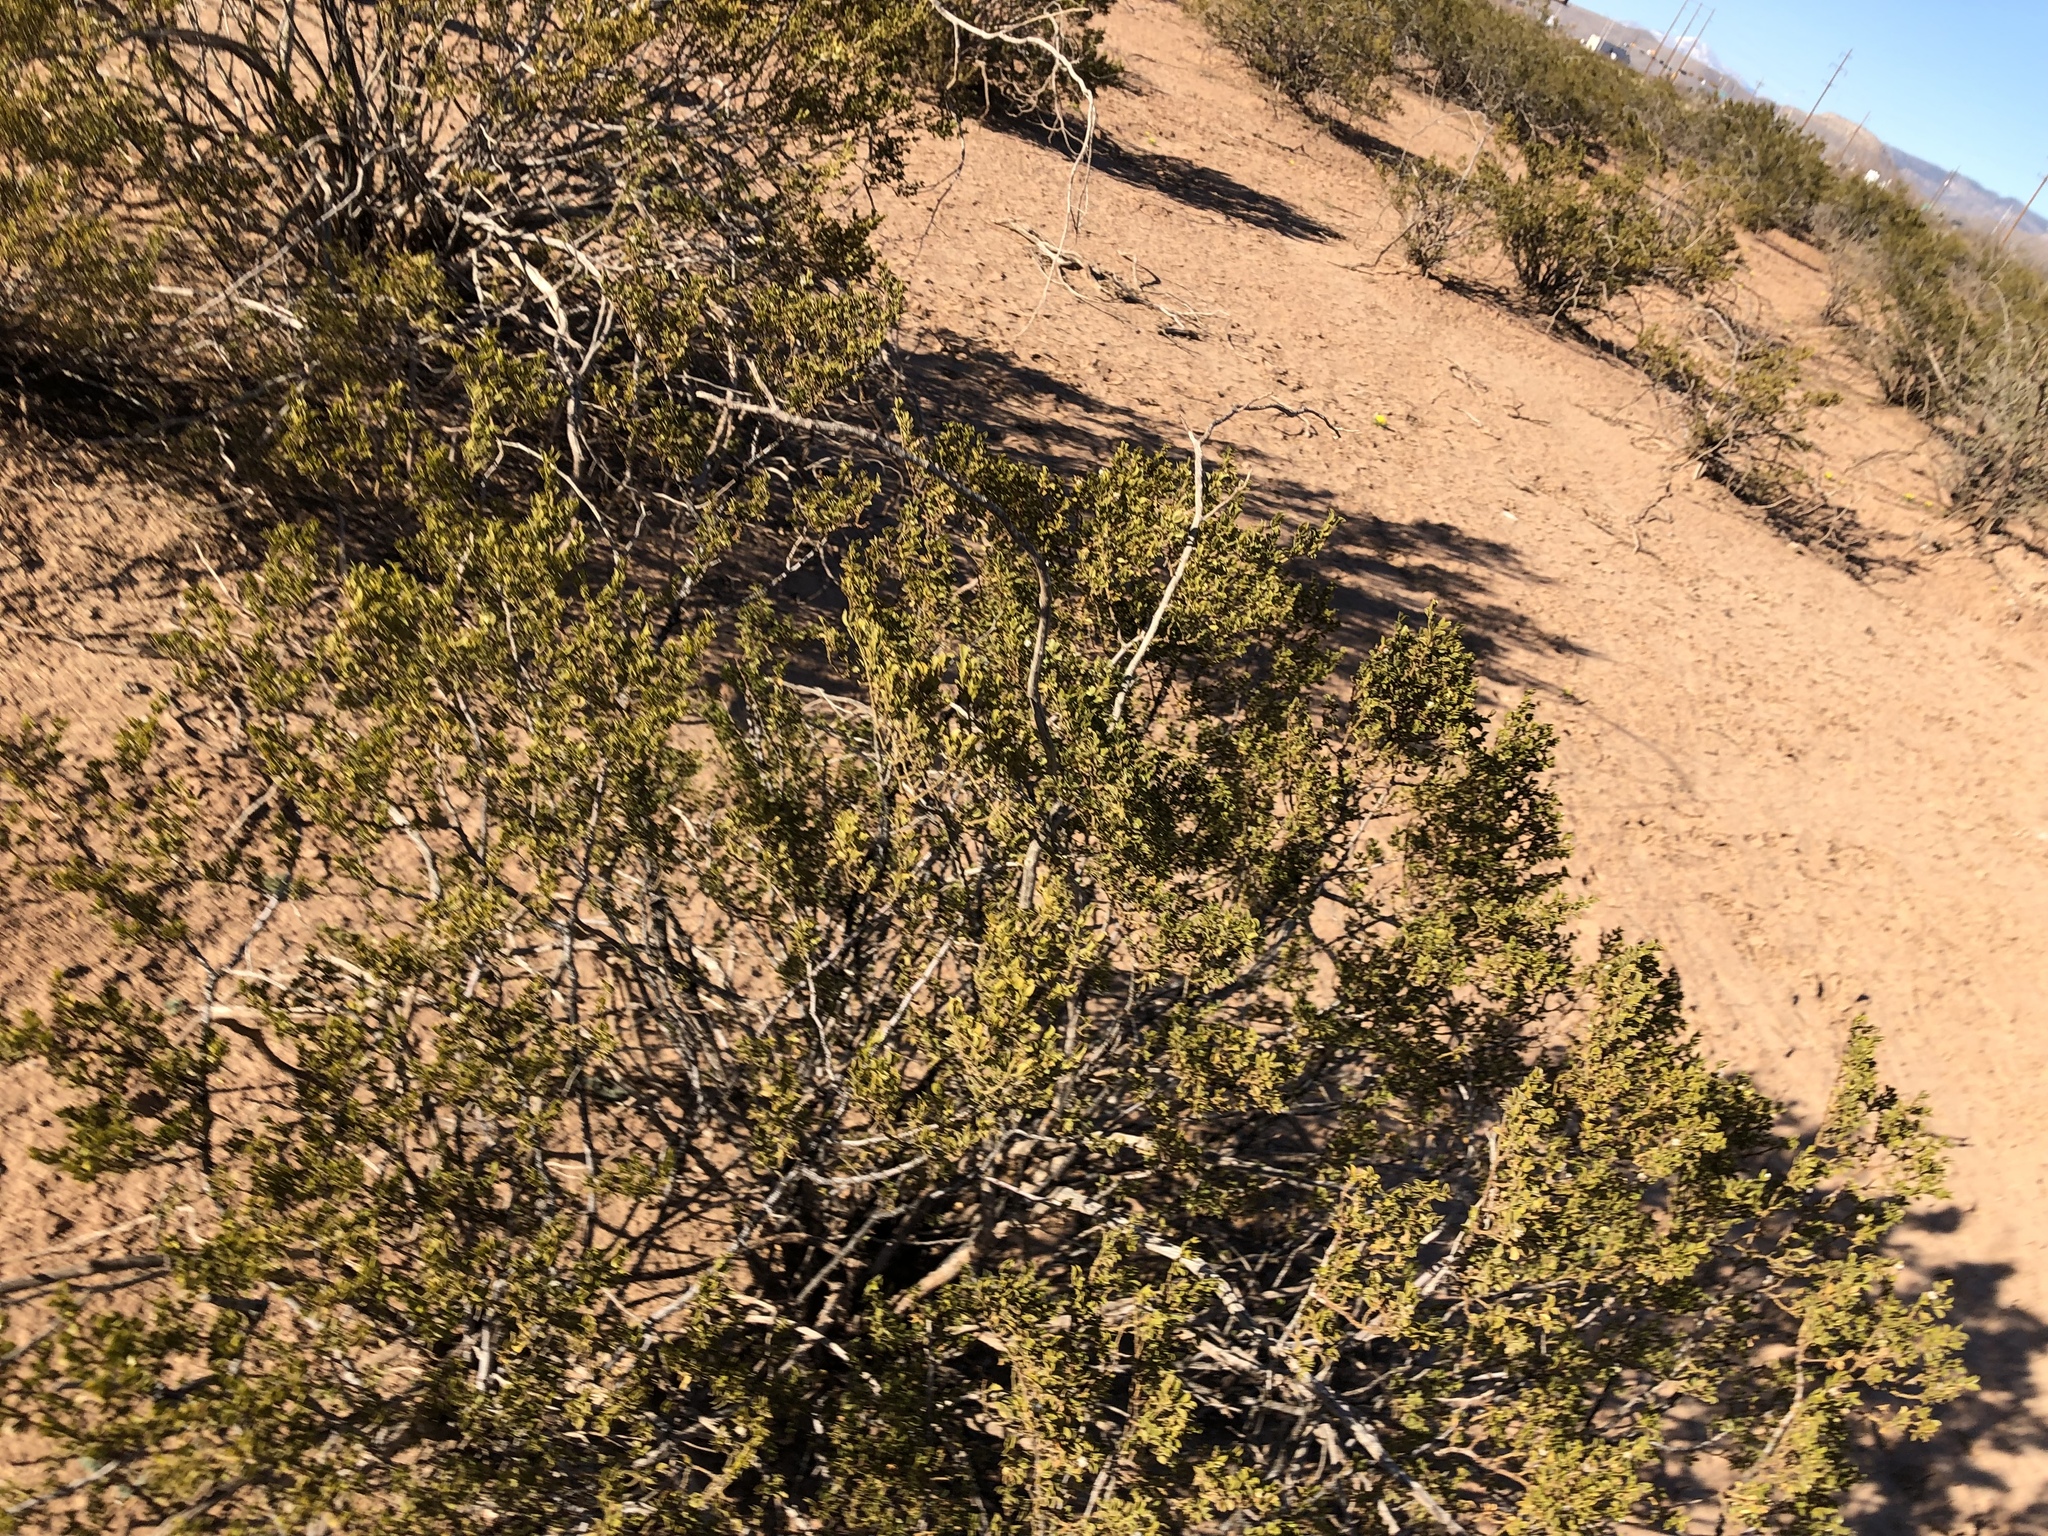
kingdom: Plantae
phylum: Tracheophyta
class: Magnoliopsida
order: Zygophyllales
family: Zygophyllaceae
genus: Larrea
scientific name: Larrea tridentata
